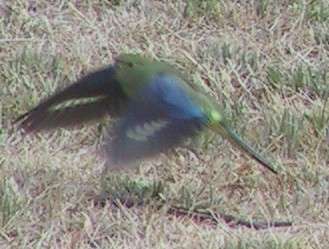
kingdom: Animalia
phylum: Chordata
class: Aves
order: Psittaciformes
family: Psittacidae
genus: Neophema
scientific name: Neophema chrysostoma
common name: Blue-winged parrot
